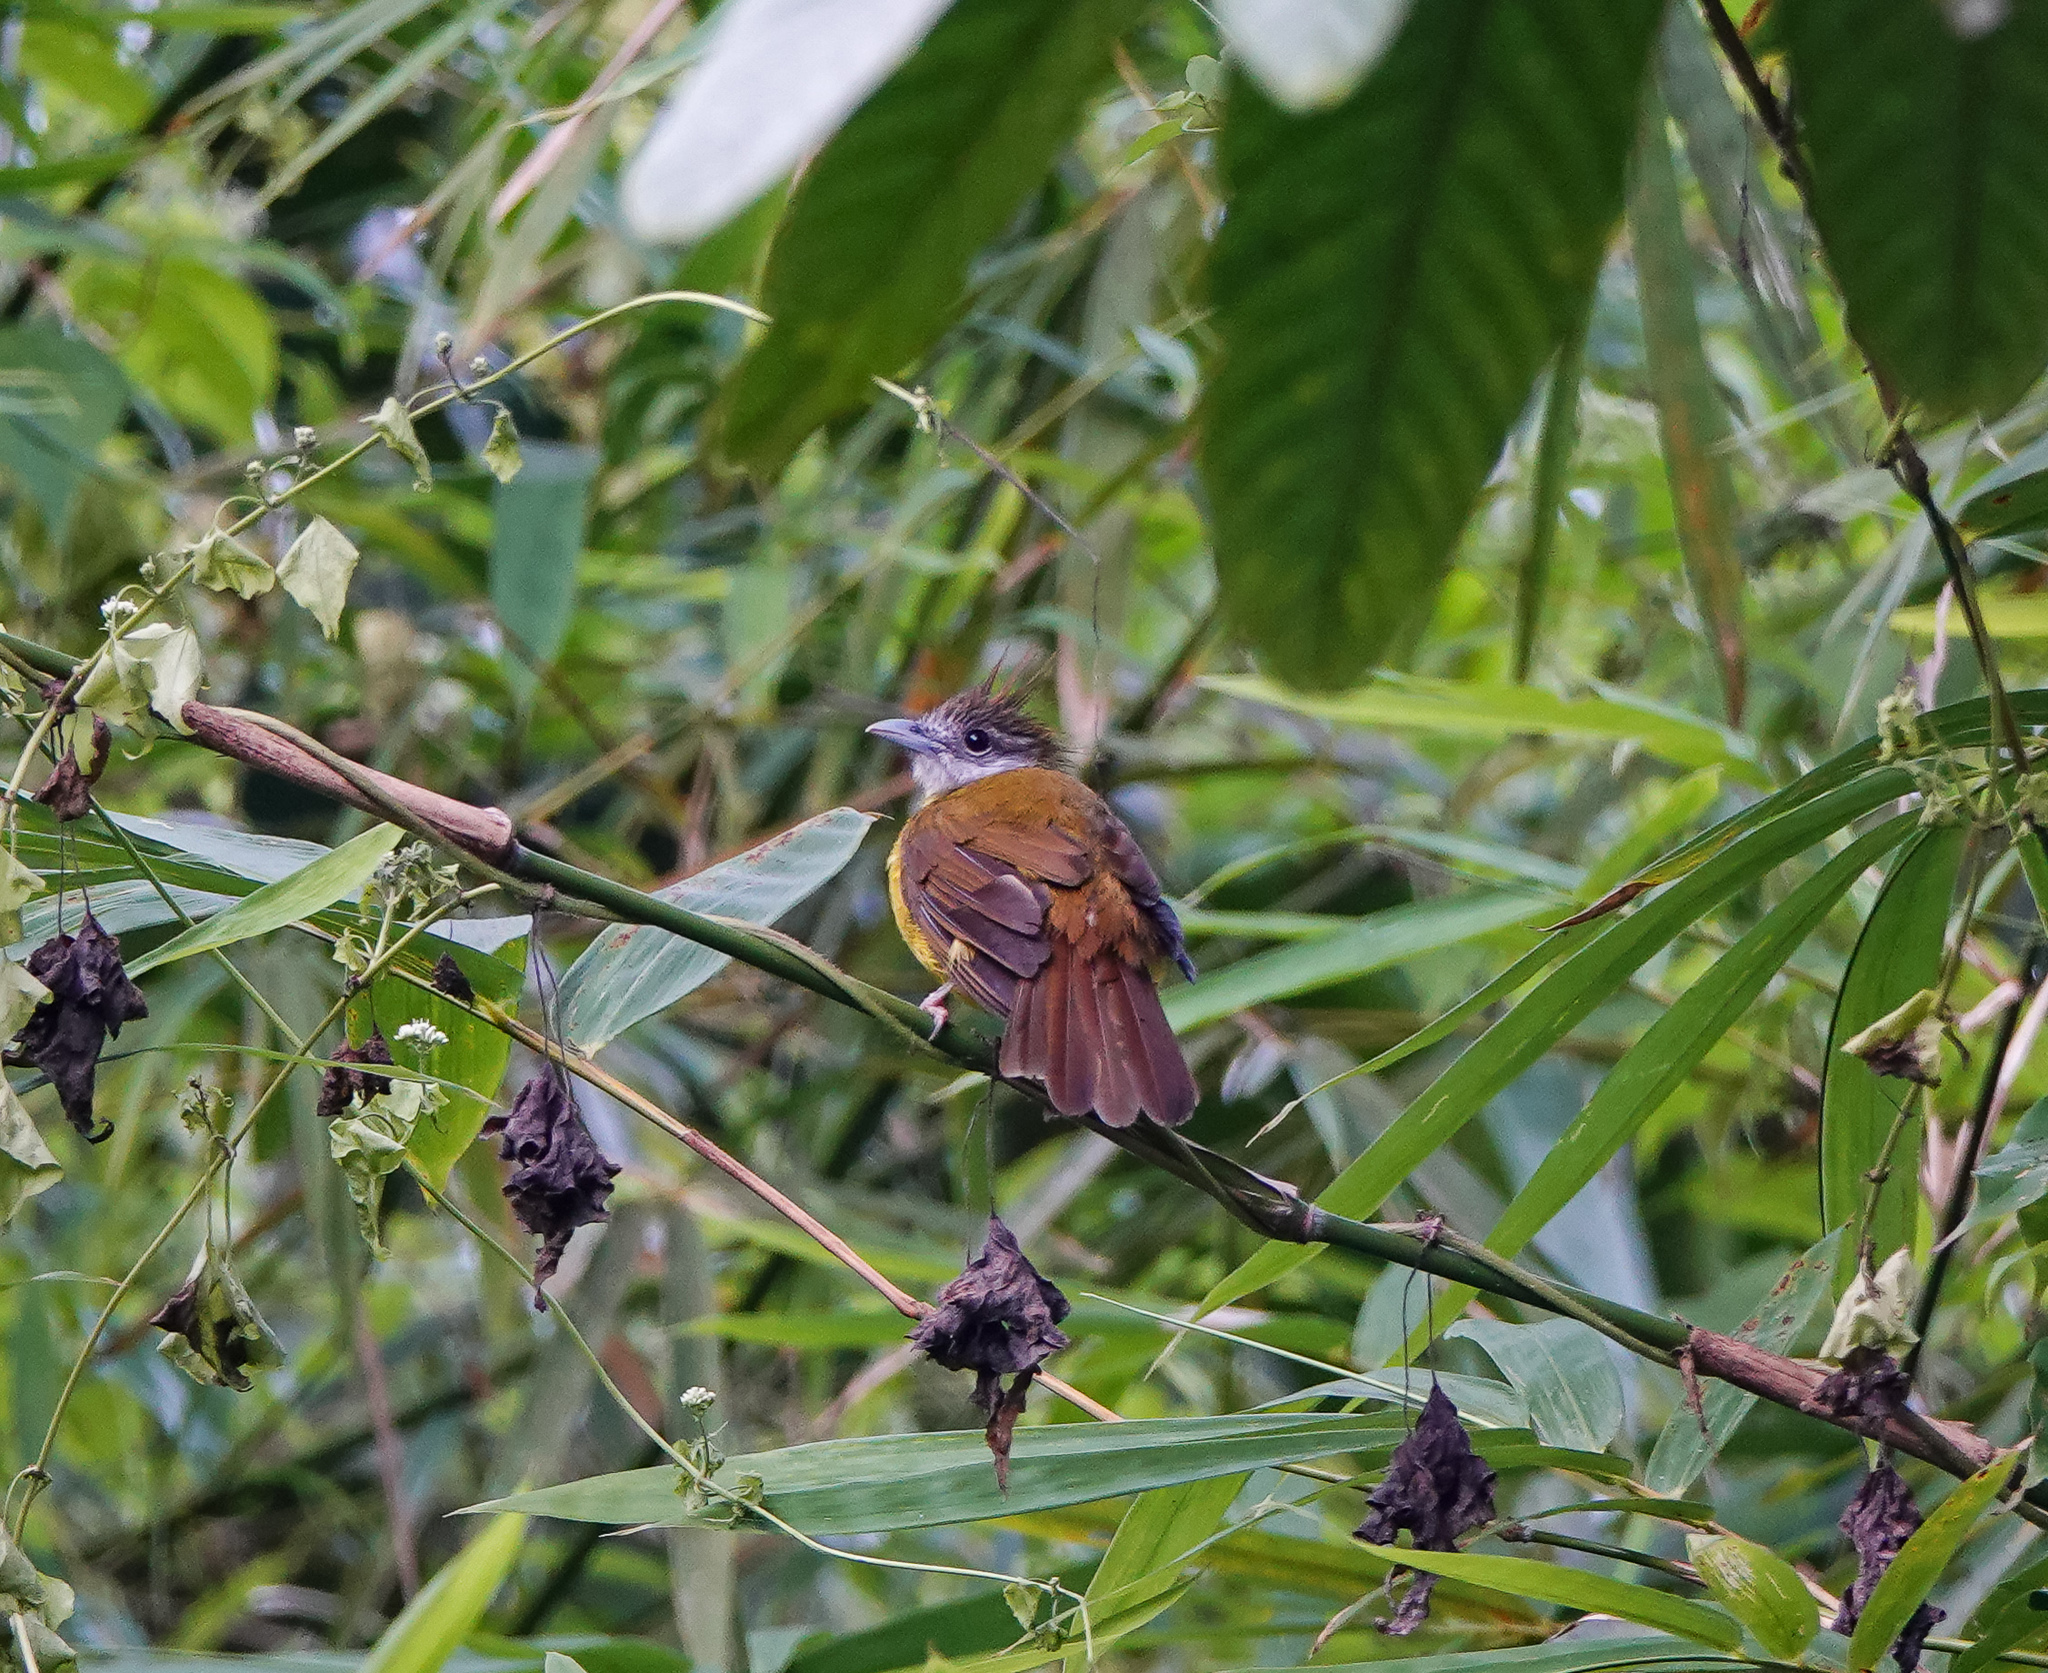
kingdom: Animalia
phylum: Chordata
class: Aves
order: Passeriformes
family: Pycnonotidae
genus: Alophoixus
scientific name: Alophoixus flaveolus
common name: White-throated bulbul
